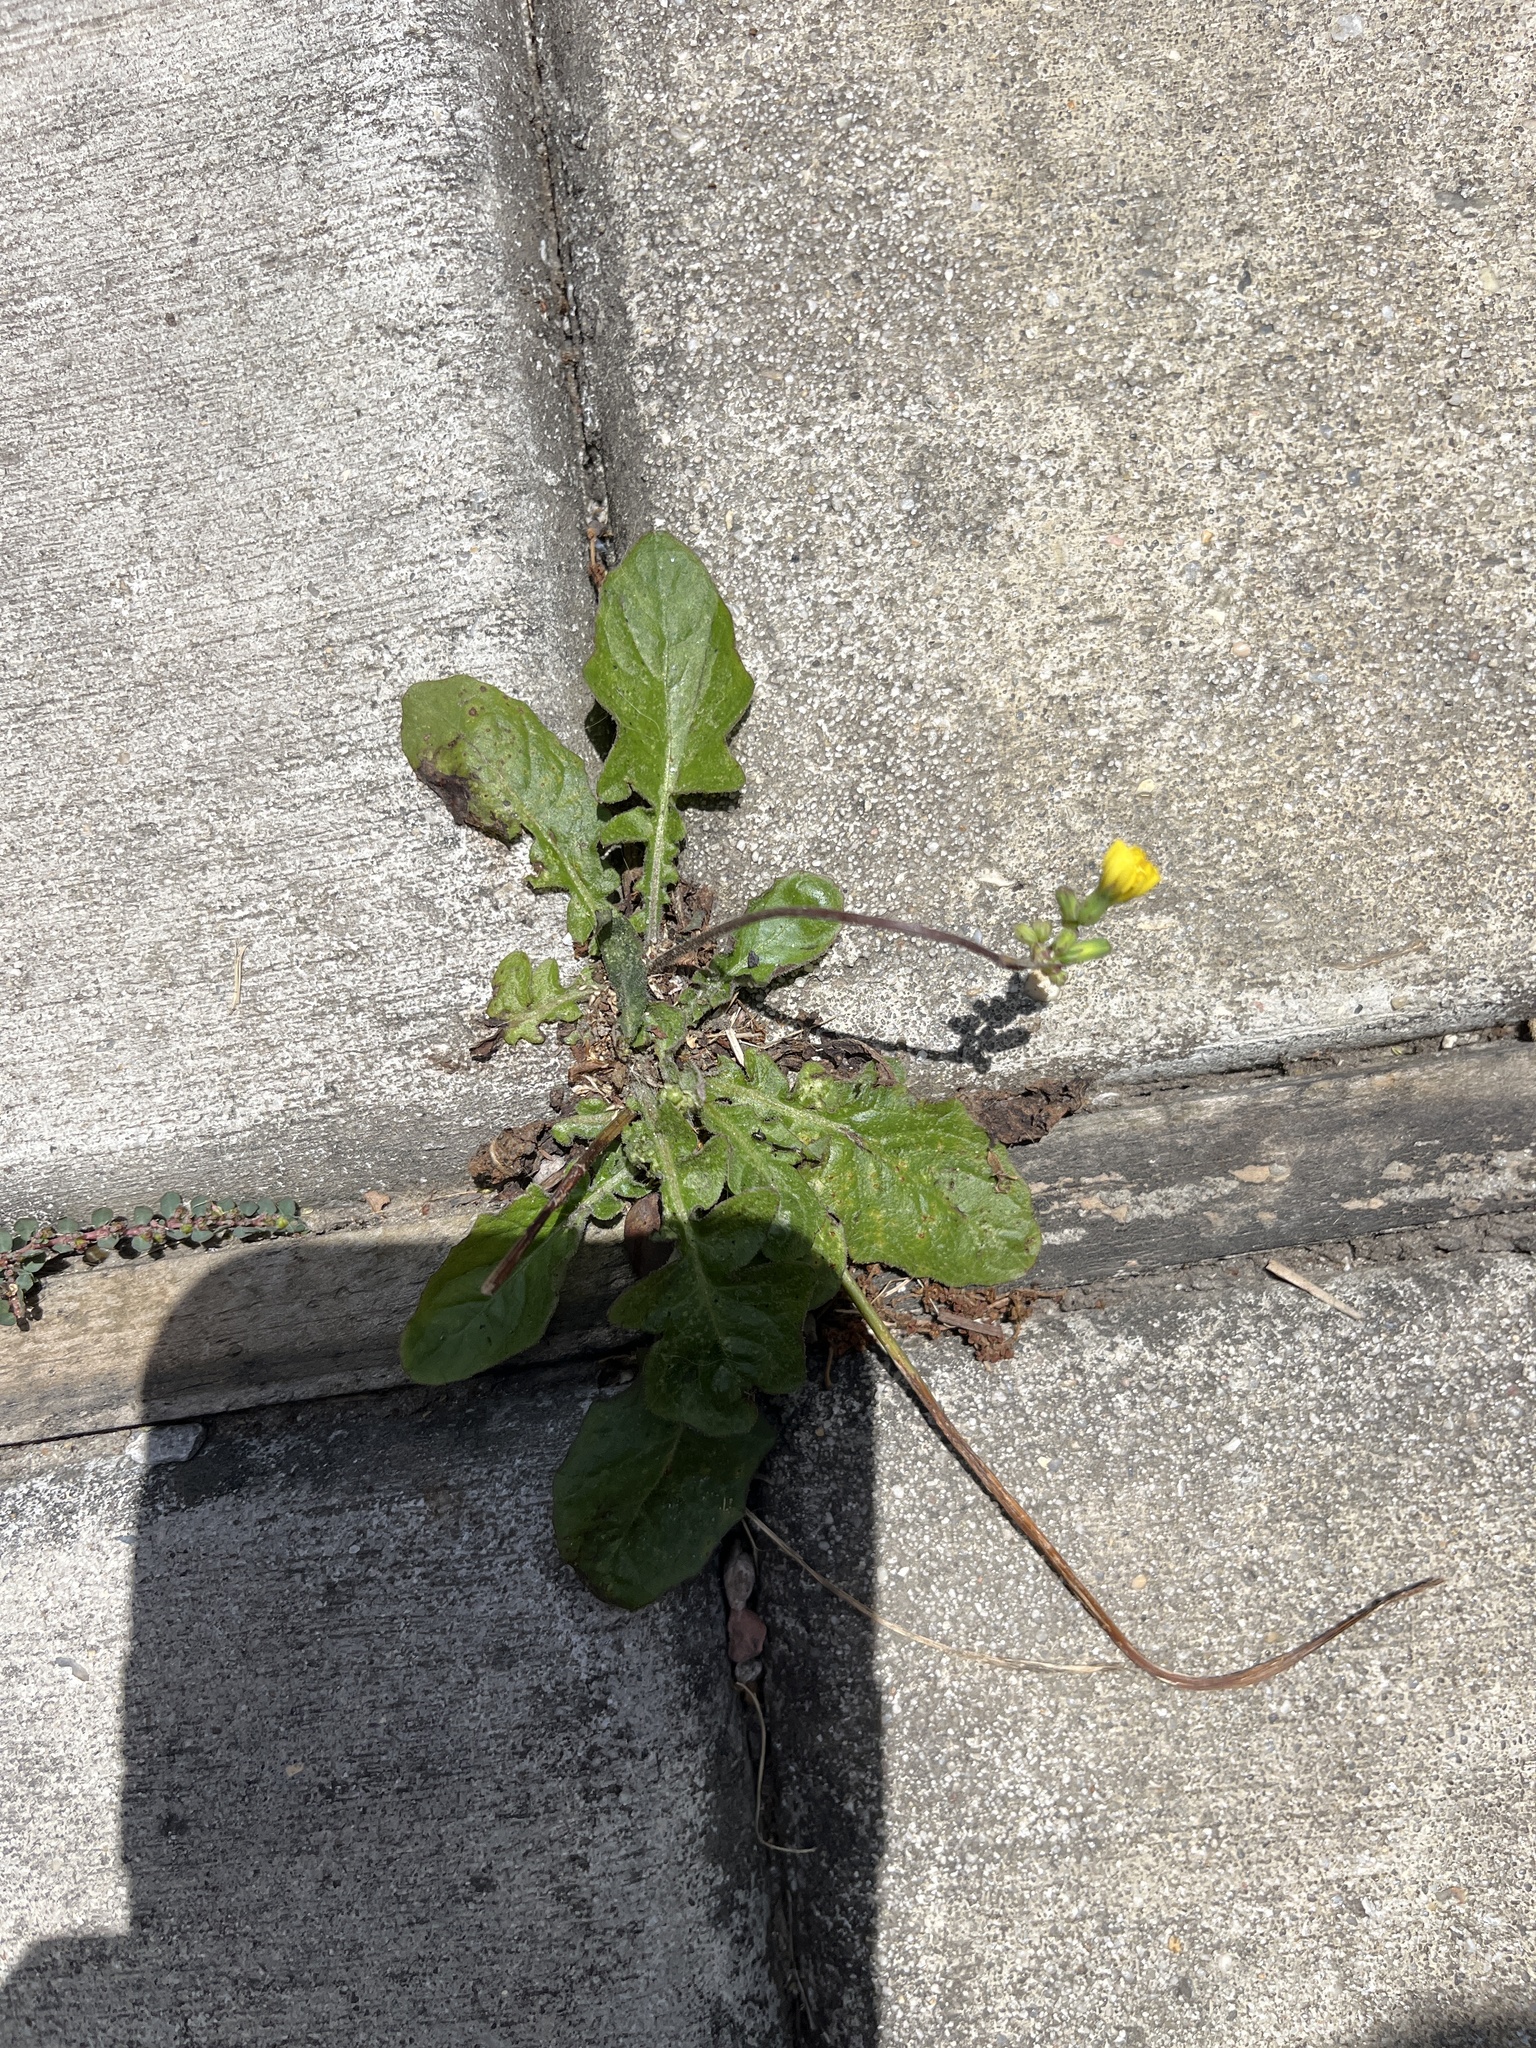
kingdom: Plantae
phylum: Tracheophyta
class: Magnoliopsida
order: Asterales
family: Asteraceae
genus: Youngia
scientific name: Youngia japonica
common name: Oriental false hawksbeard
